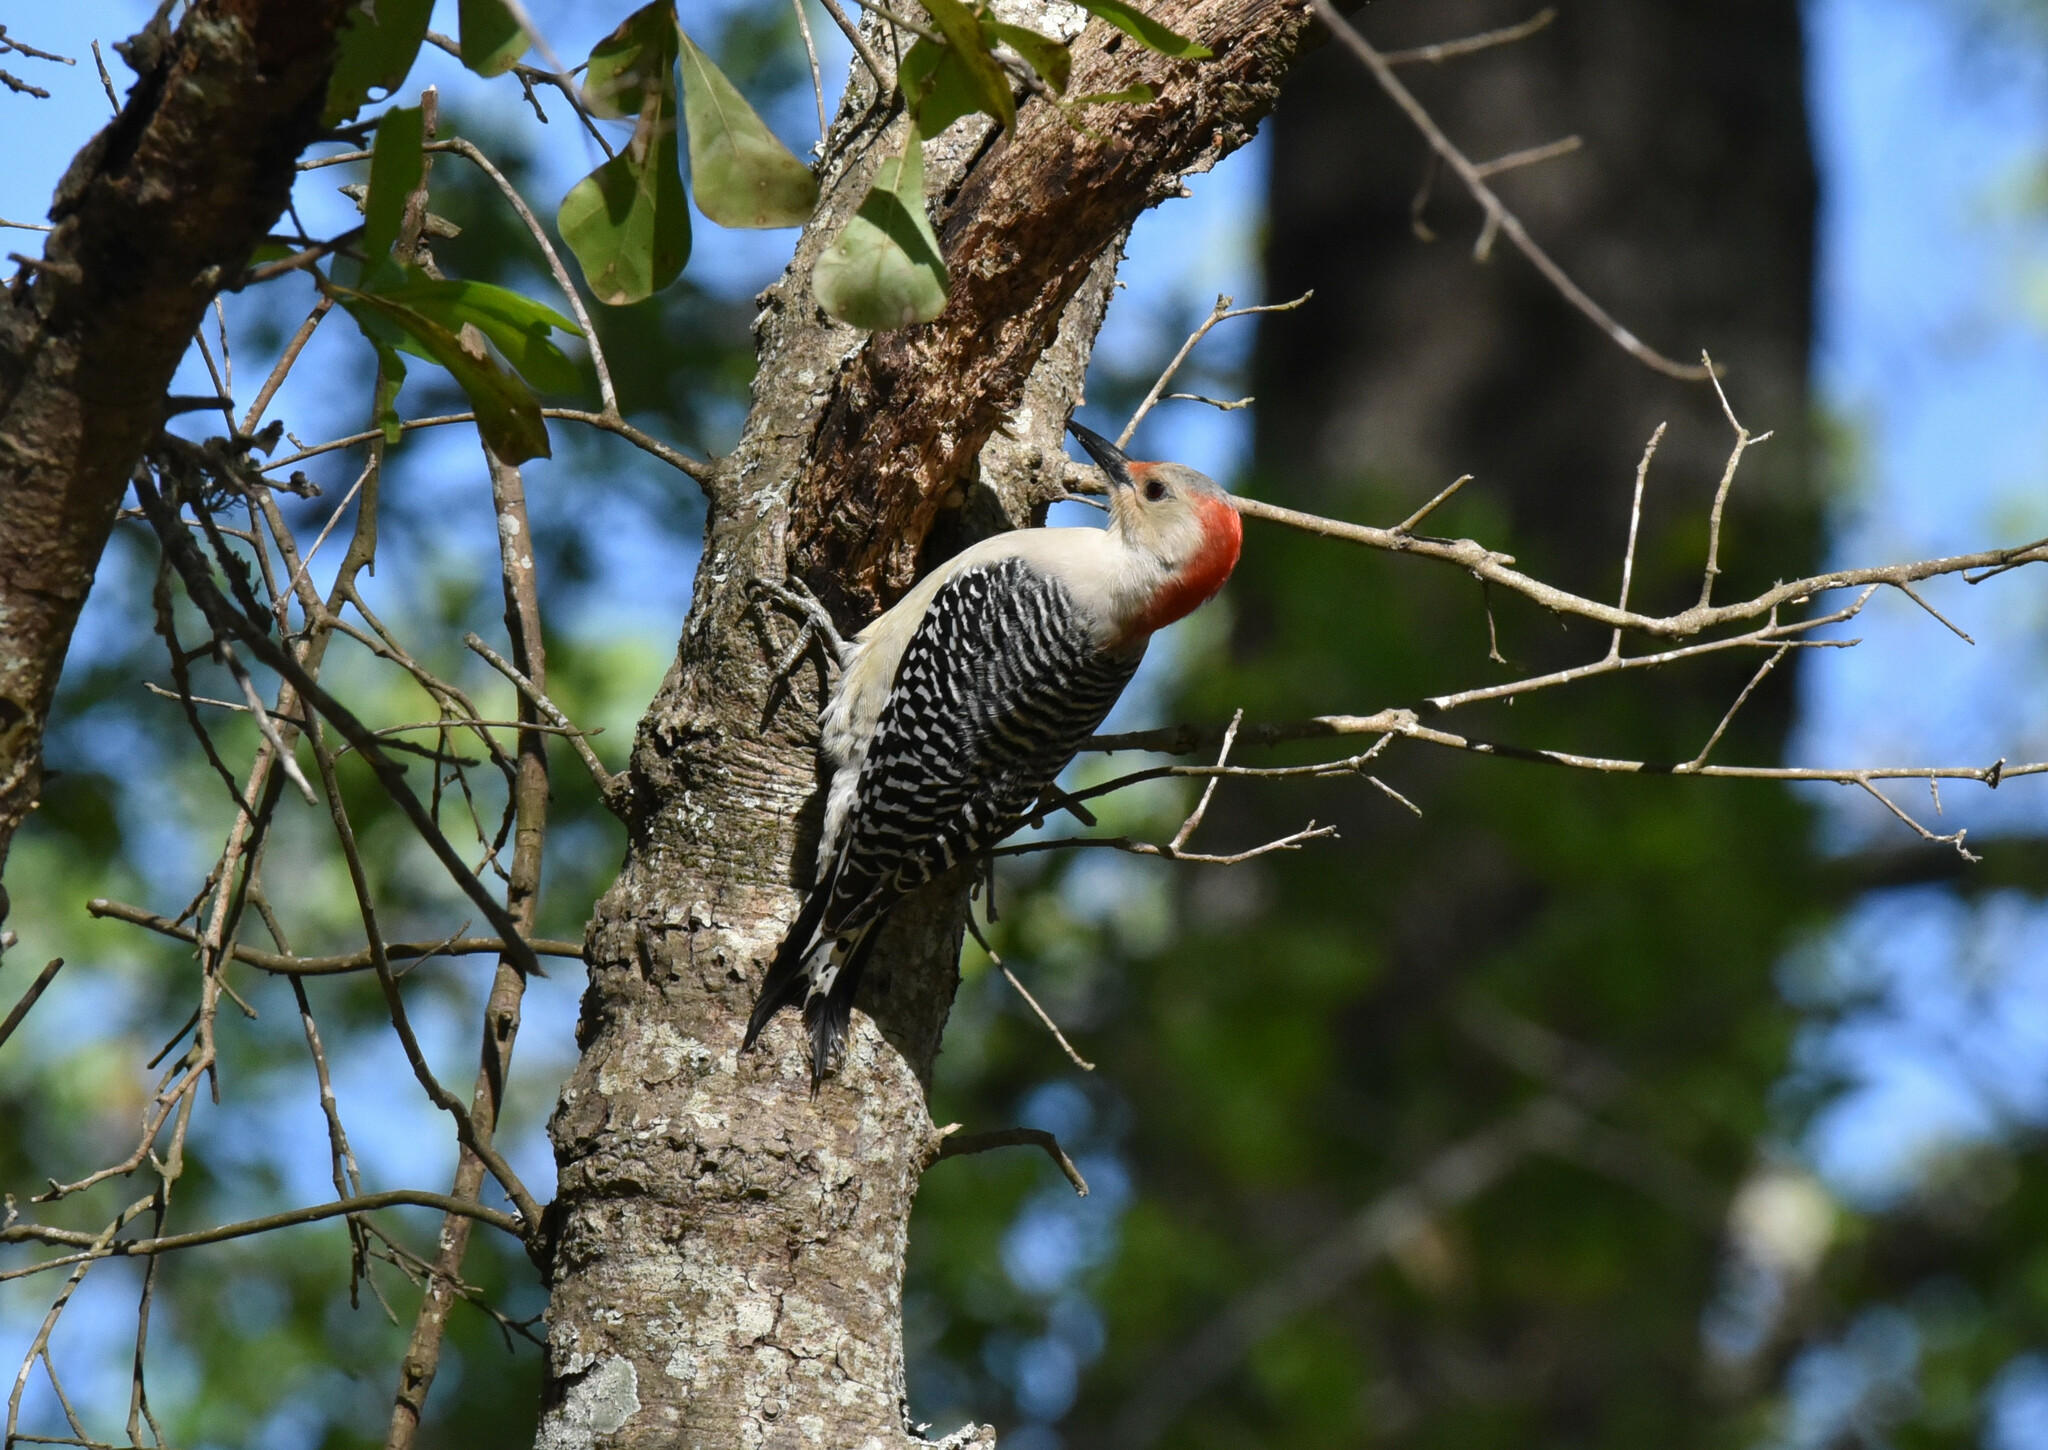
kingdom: Animalia
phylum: Chordata
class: Aves
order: Piciformes
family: Picidae
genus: Melanerpes
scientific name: Melanerpes carolinus
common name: Red-bellied woodpecker
